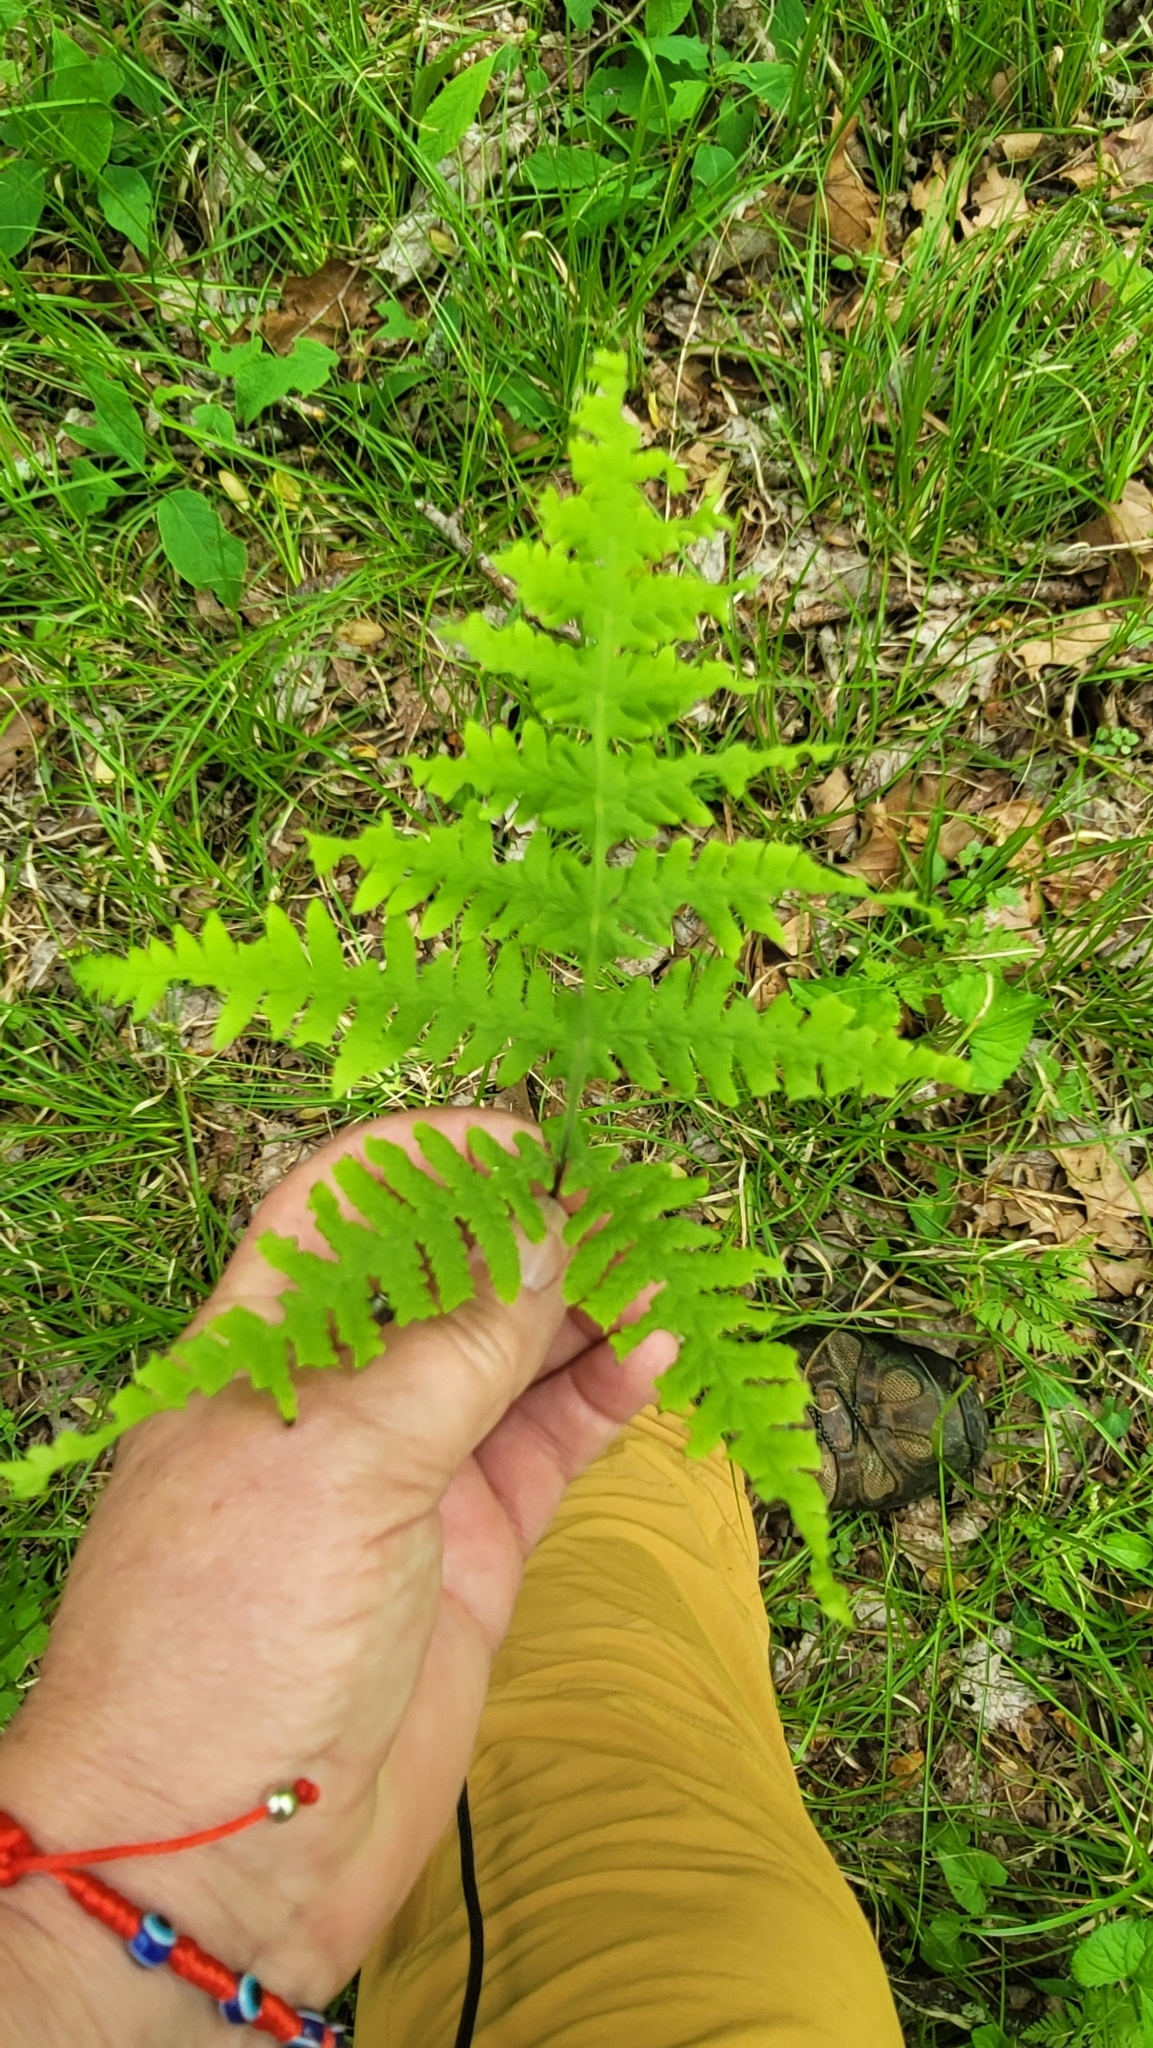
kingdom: Plantae
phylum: Tracheophyta
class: Polypodiopsida
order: Polypodiales
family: Thelypteridaceae
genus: Phegopteris
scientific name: Phegopteris hexagonoptera
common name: Broad beech fern
